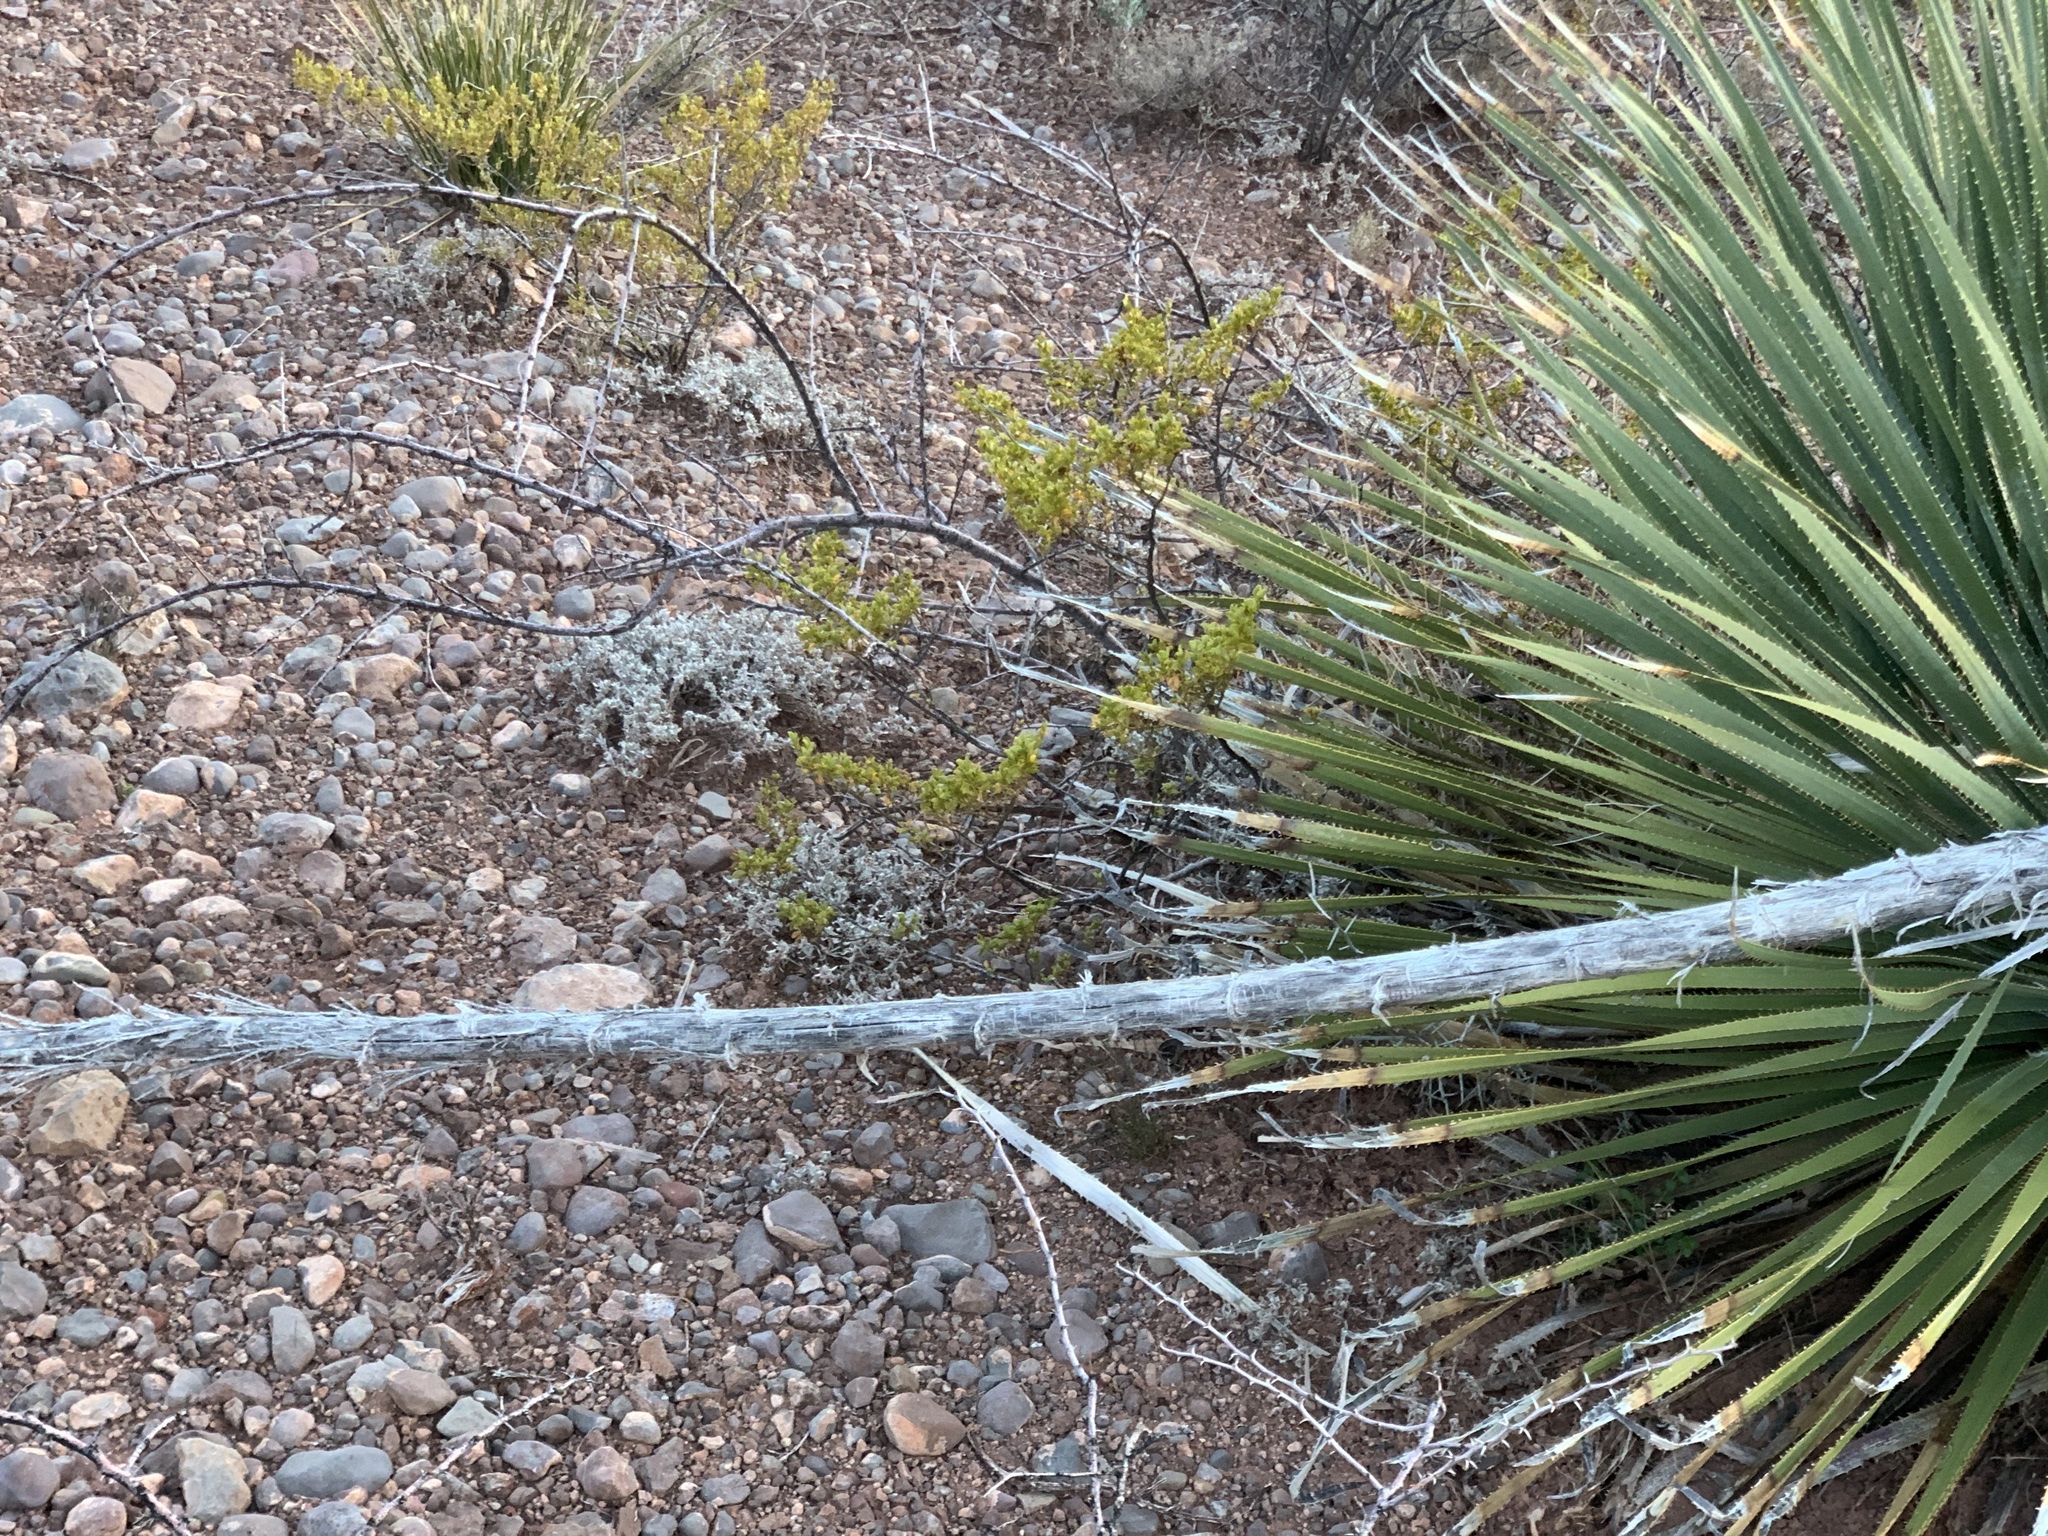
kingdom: Plantae
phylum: Tracheophyta
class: Liliopsida
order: Asparagales
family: Asparagaceae
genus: Dasylirion
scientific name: Dasylirion wheeleri
